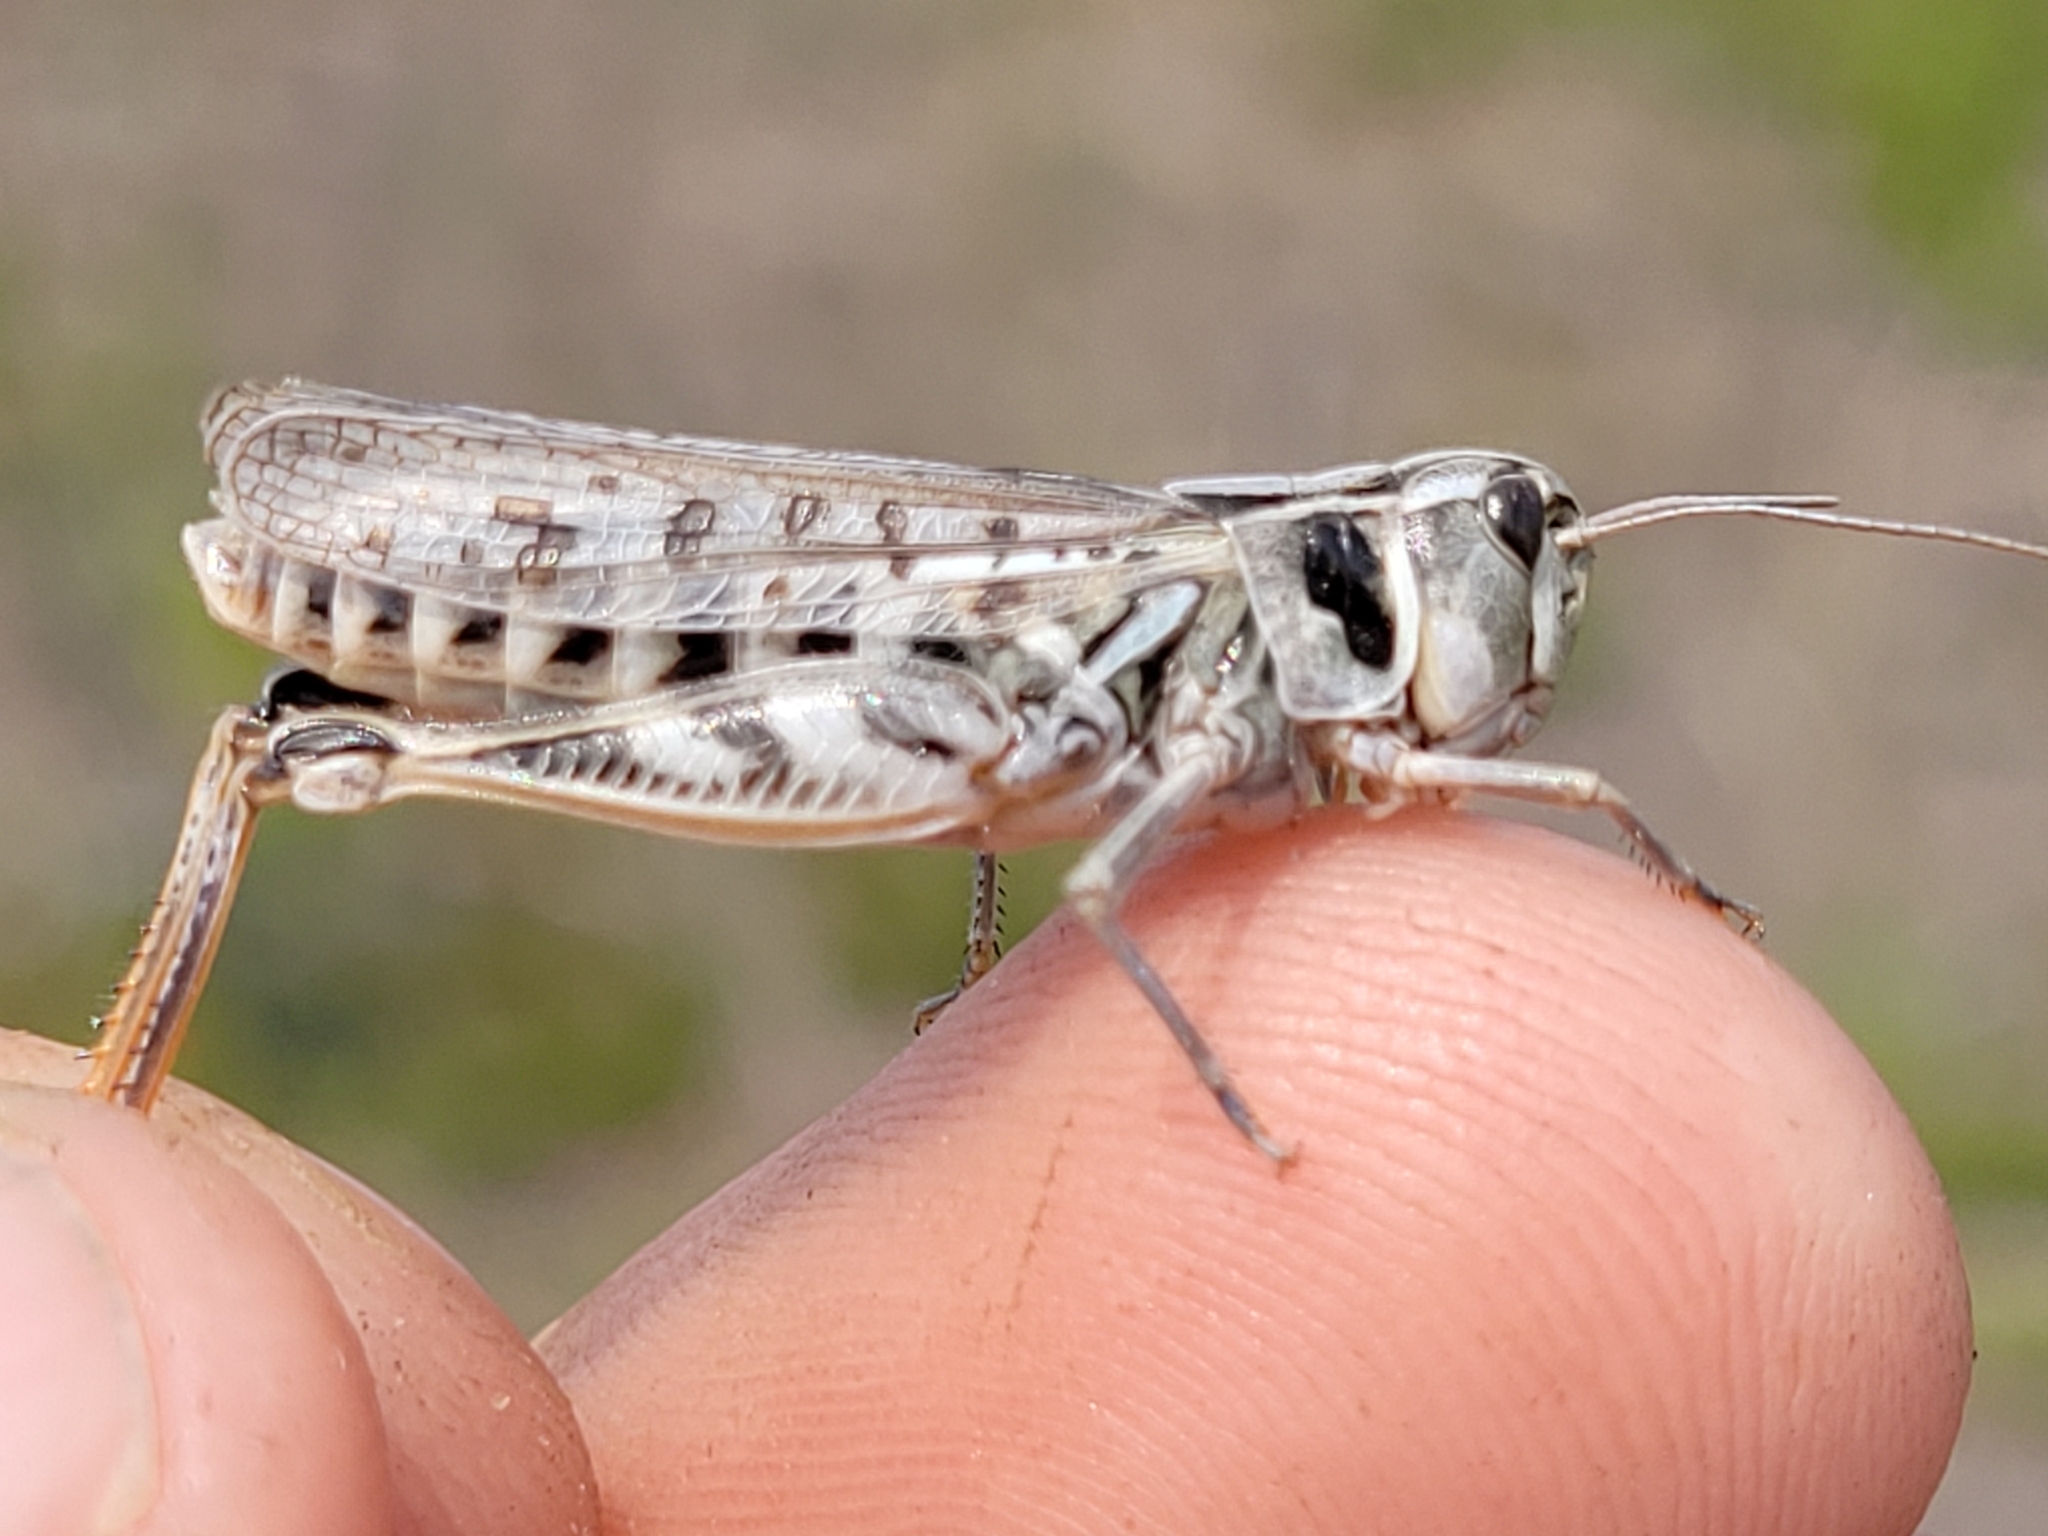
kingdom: Animalia
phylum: Arthropoda
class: Insecta
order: Orthoptera
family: Acrididae
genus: Bruneria
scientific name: Bruneria brunnea
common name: Bruner slantfaced grasshopper
